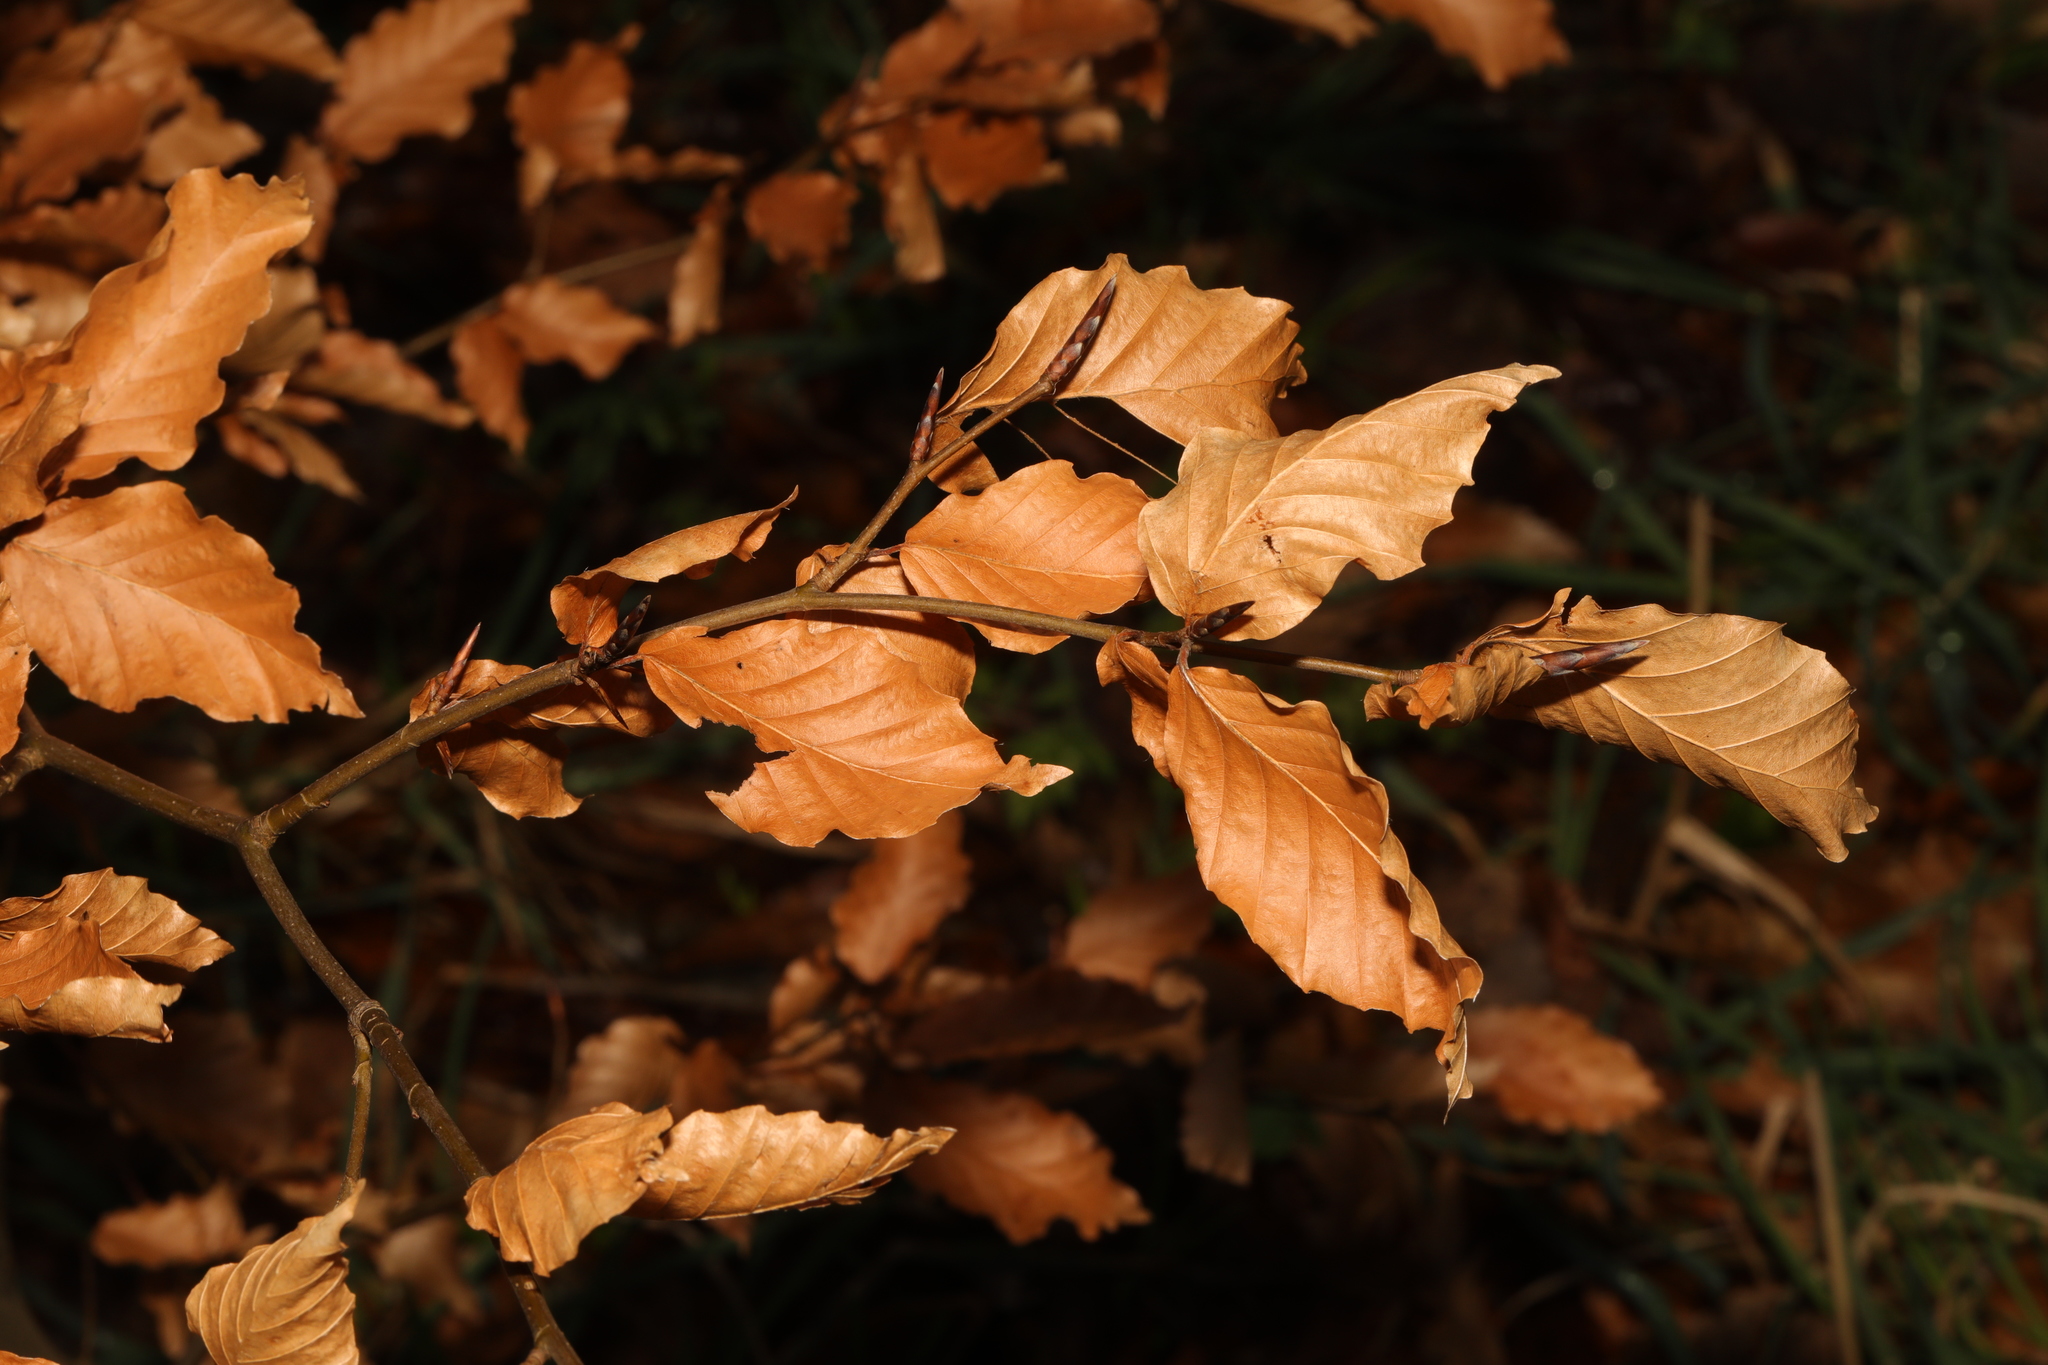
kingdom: Plantae
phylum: Tracheophyta
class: Magnoliopsida
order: Fagales
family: Fagaceae
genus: Fagus
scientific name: Fagus sylvatica
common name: Beech
